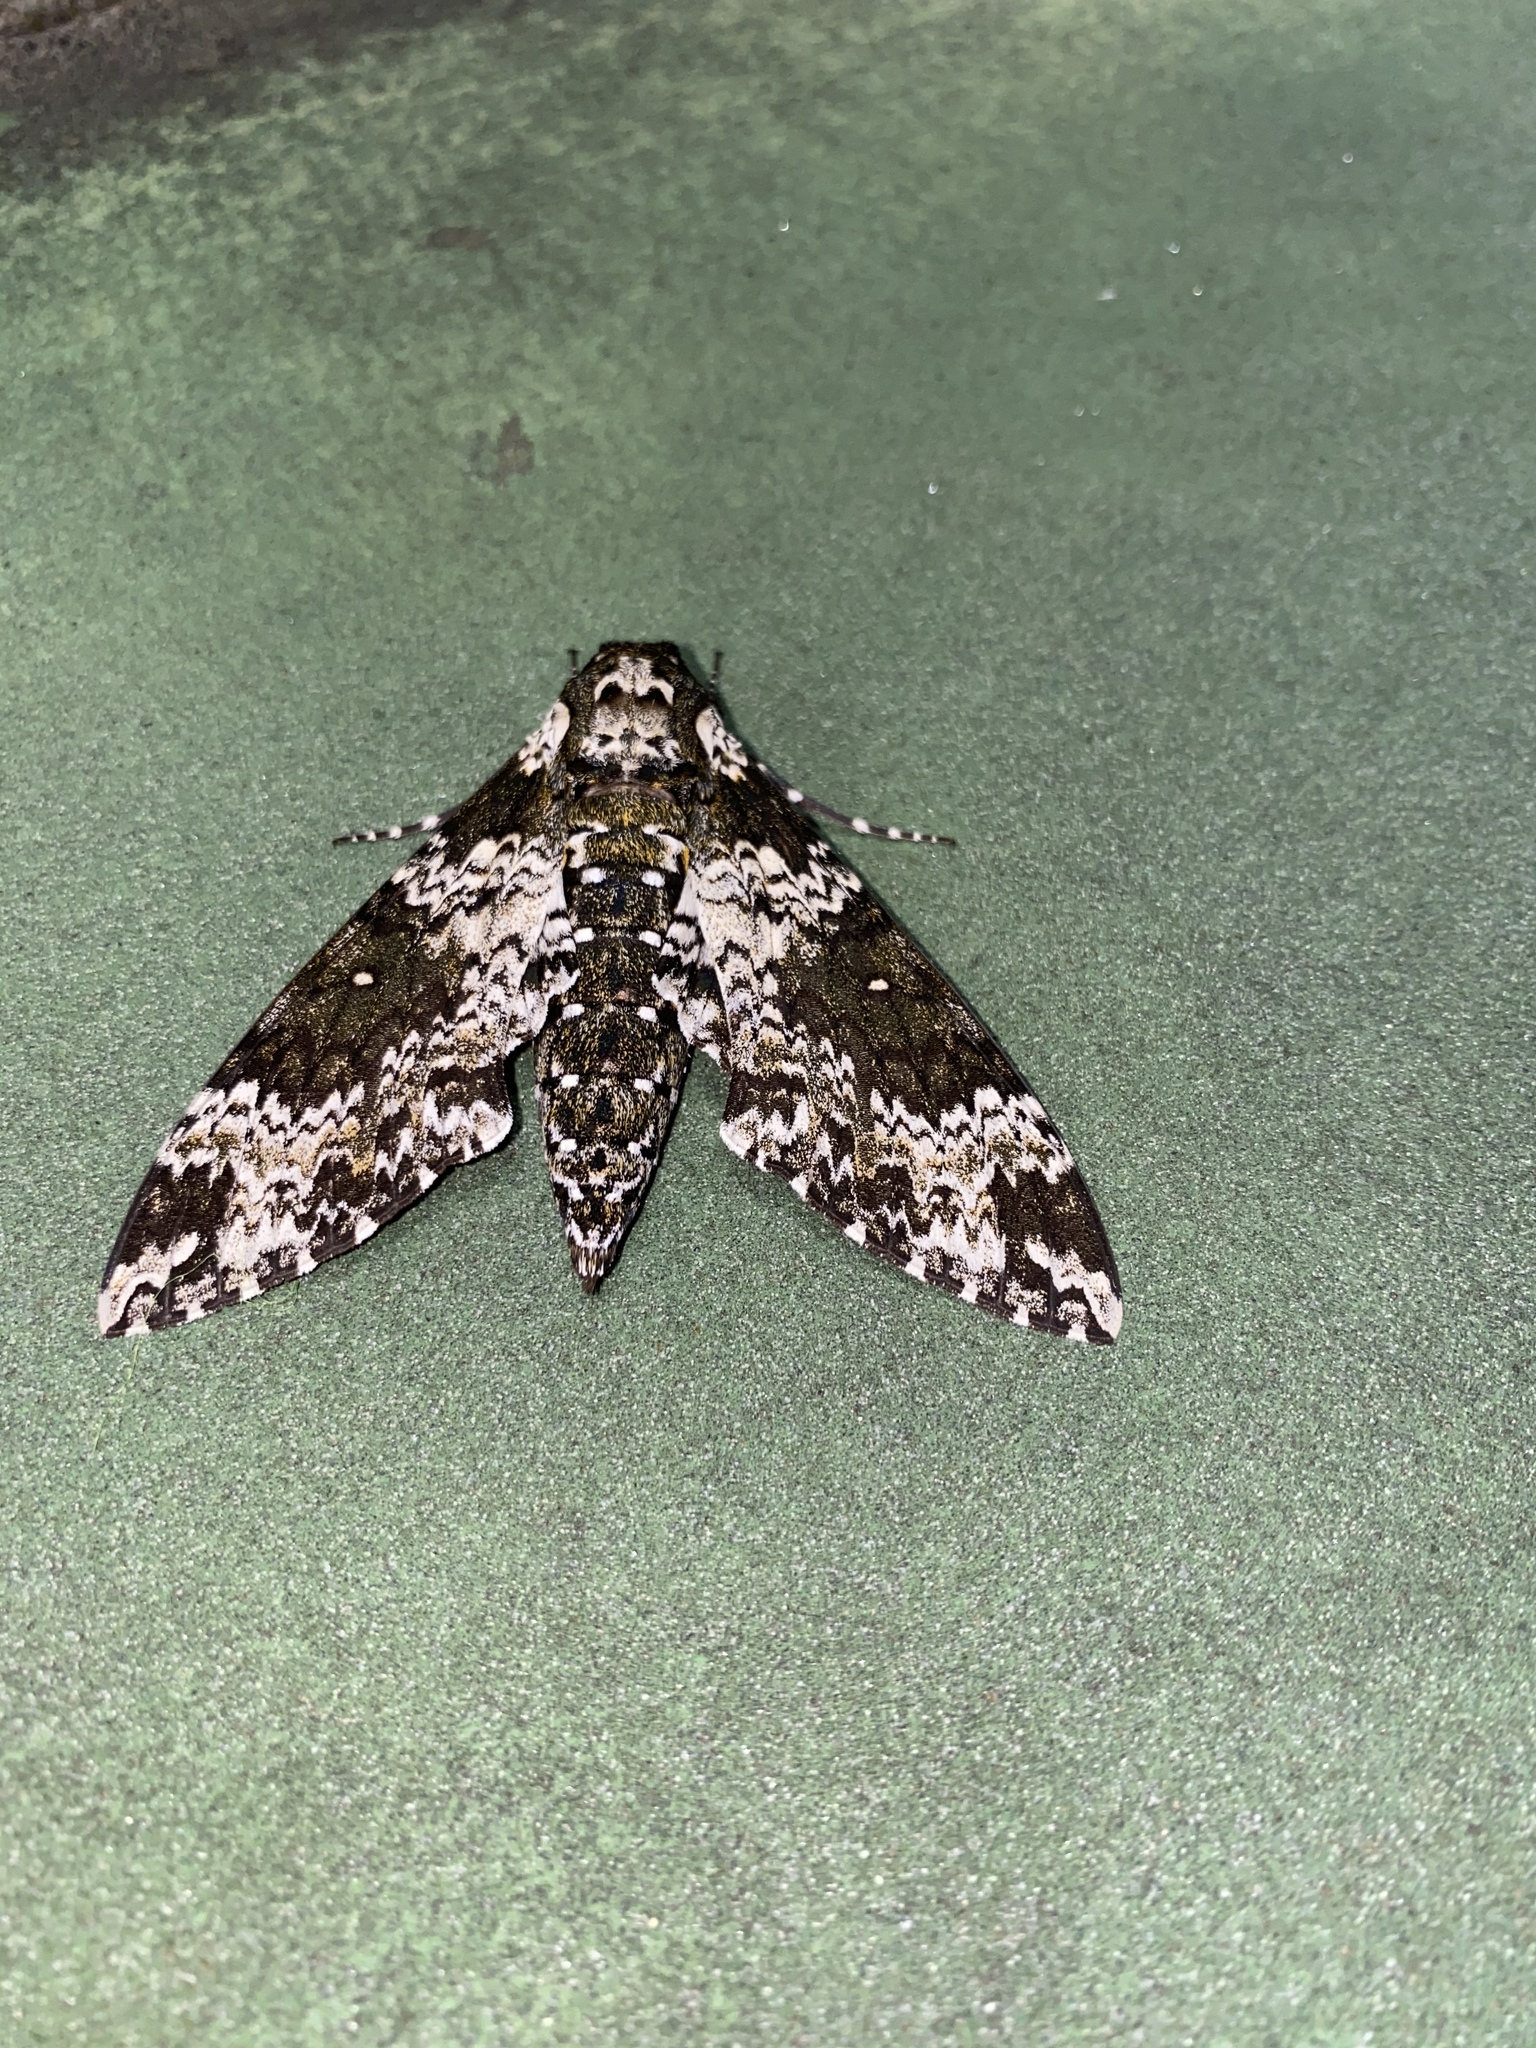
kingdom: Animalia
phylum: Arthropoda
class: Insecta
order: Lepidoptera
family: Sphingidae
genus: Manduca
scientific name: Manduca rustica
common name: Rustic sphinx
